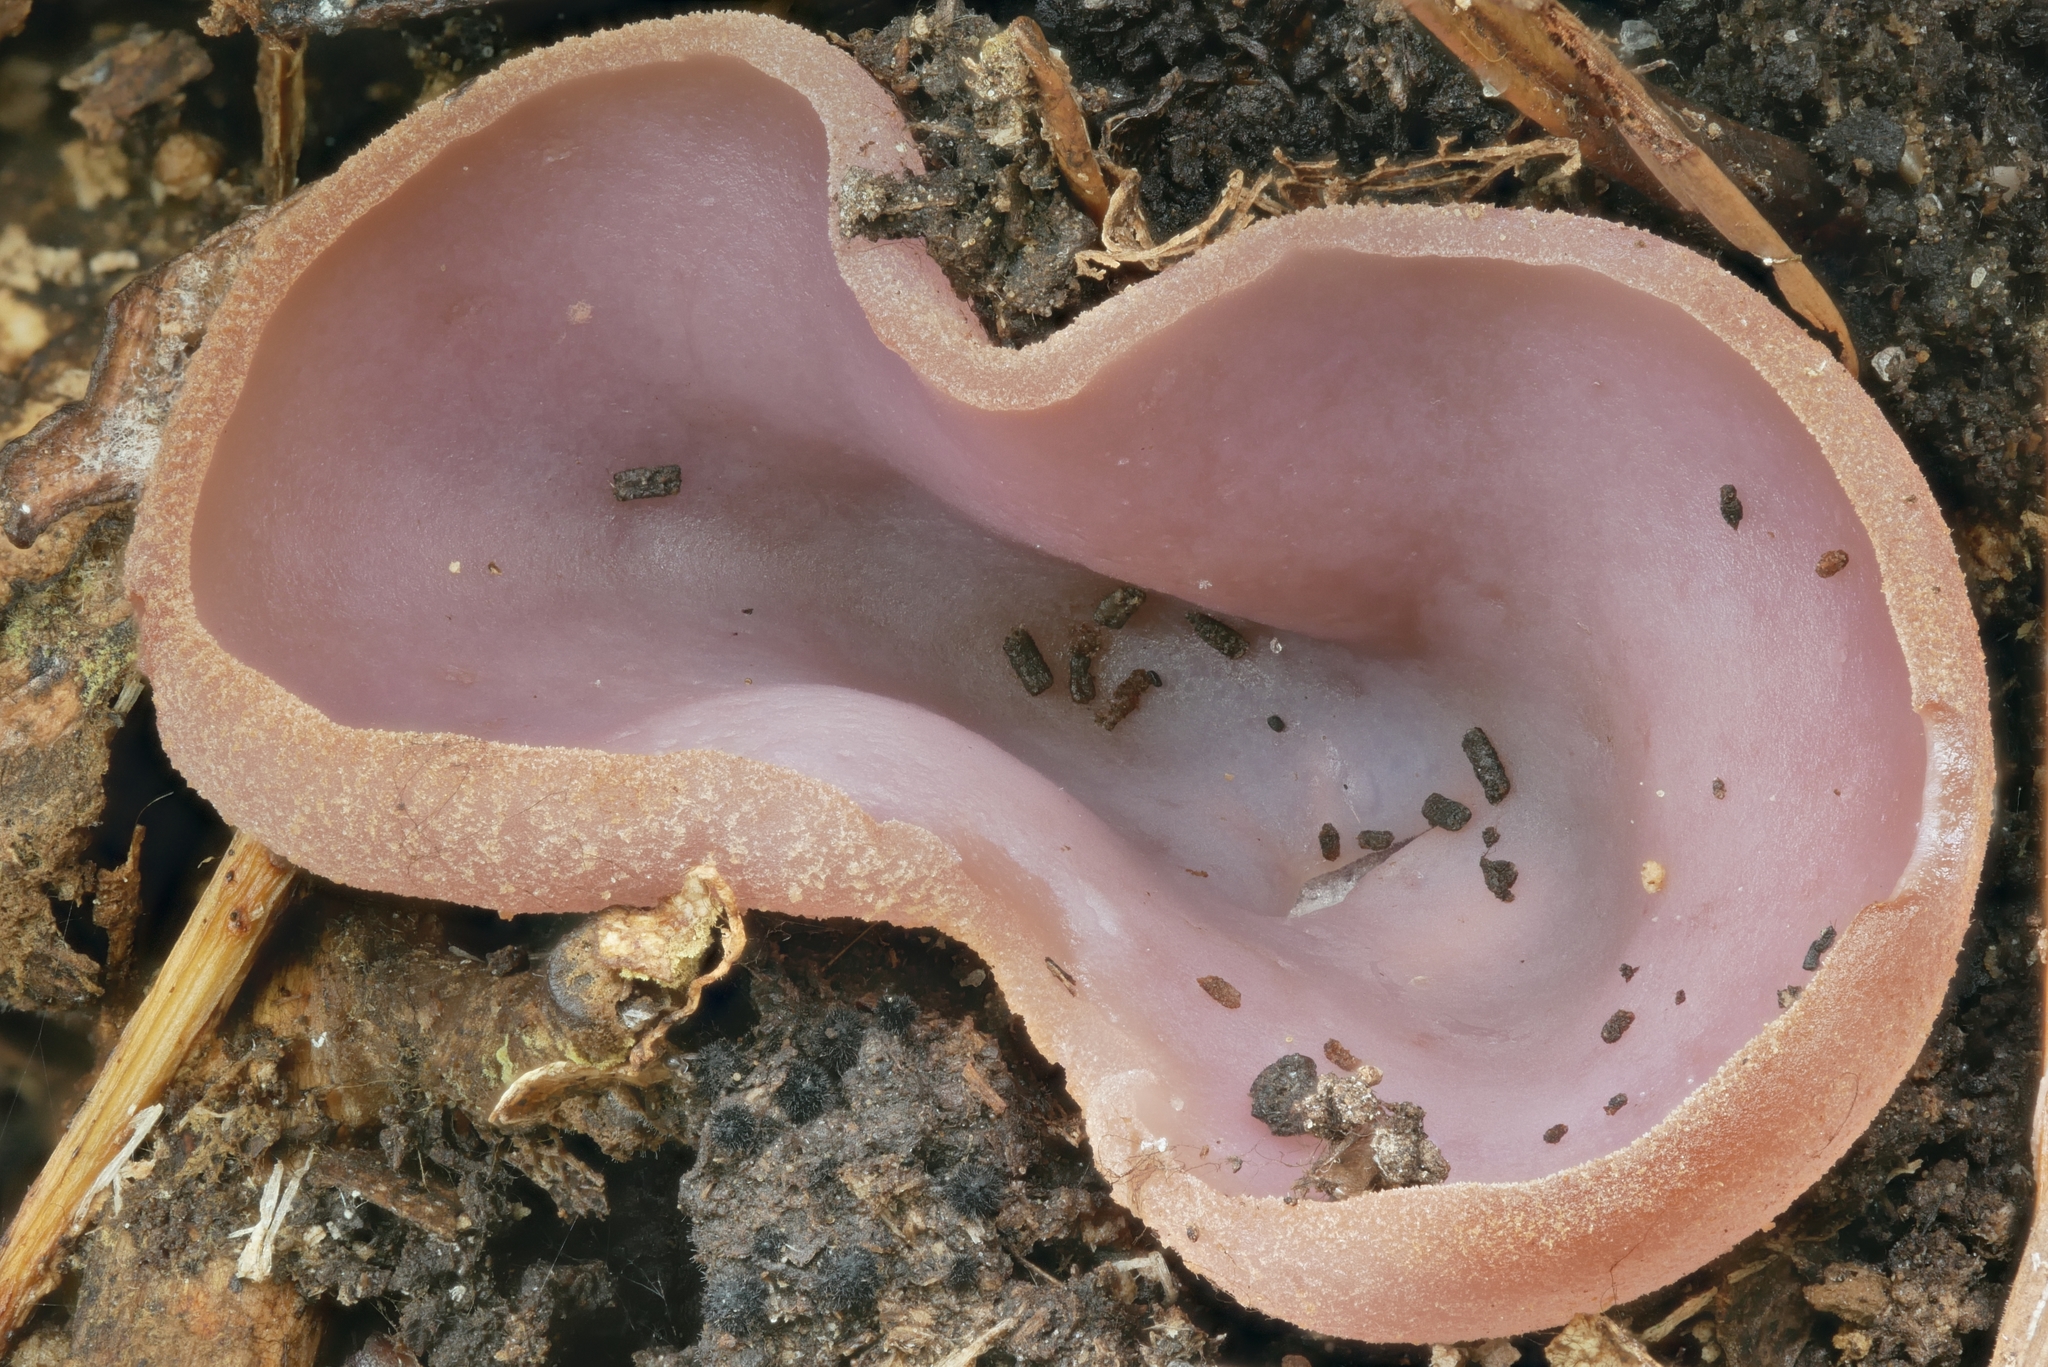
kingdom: Fungi
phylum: Ascomycota
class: Pezizomycetes
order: Pezizales
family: Pezizaceae
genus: Peziza
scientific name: Peziza griseorosea
